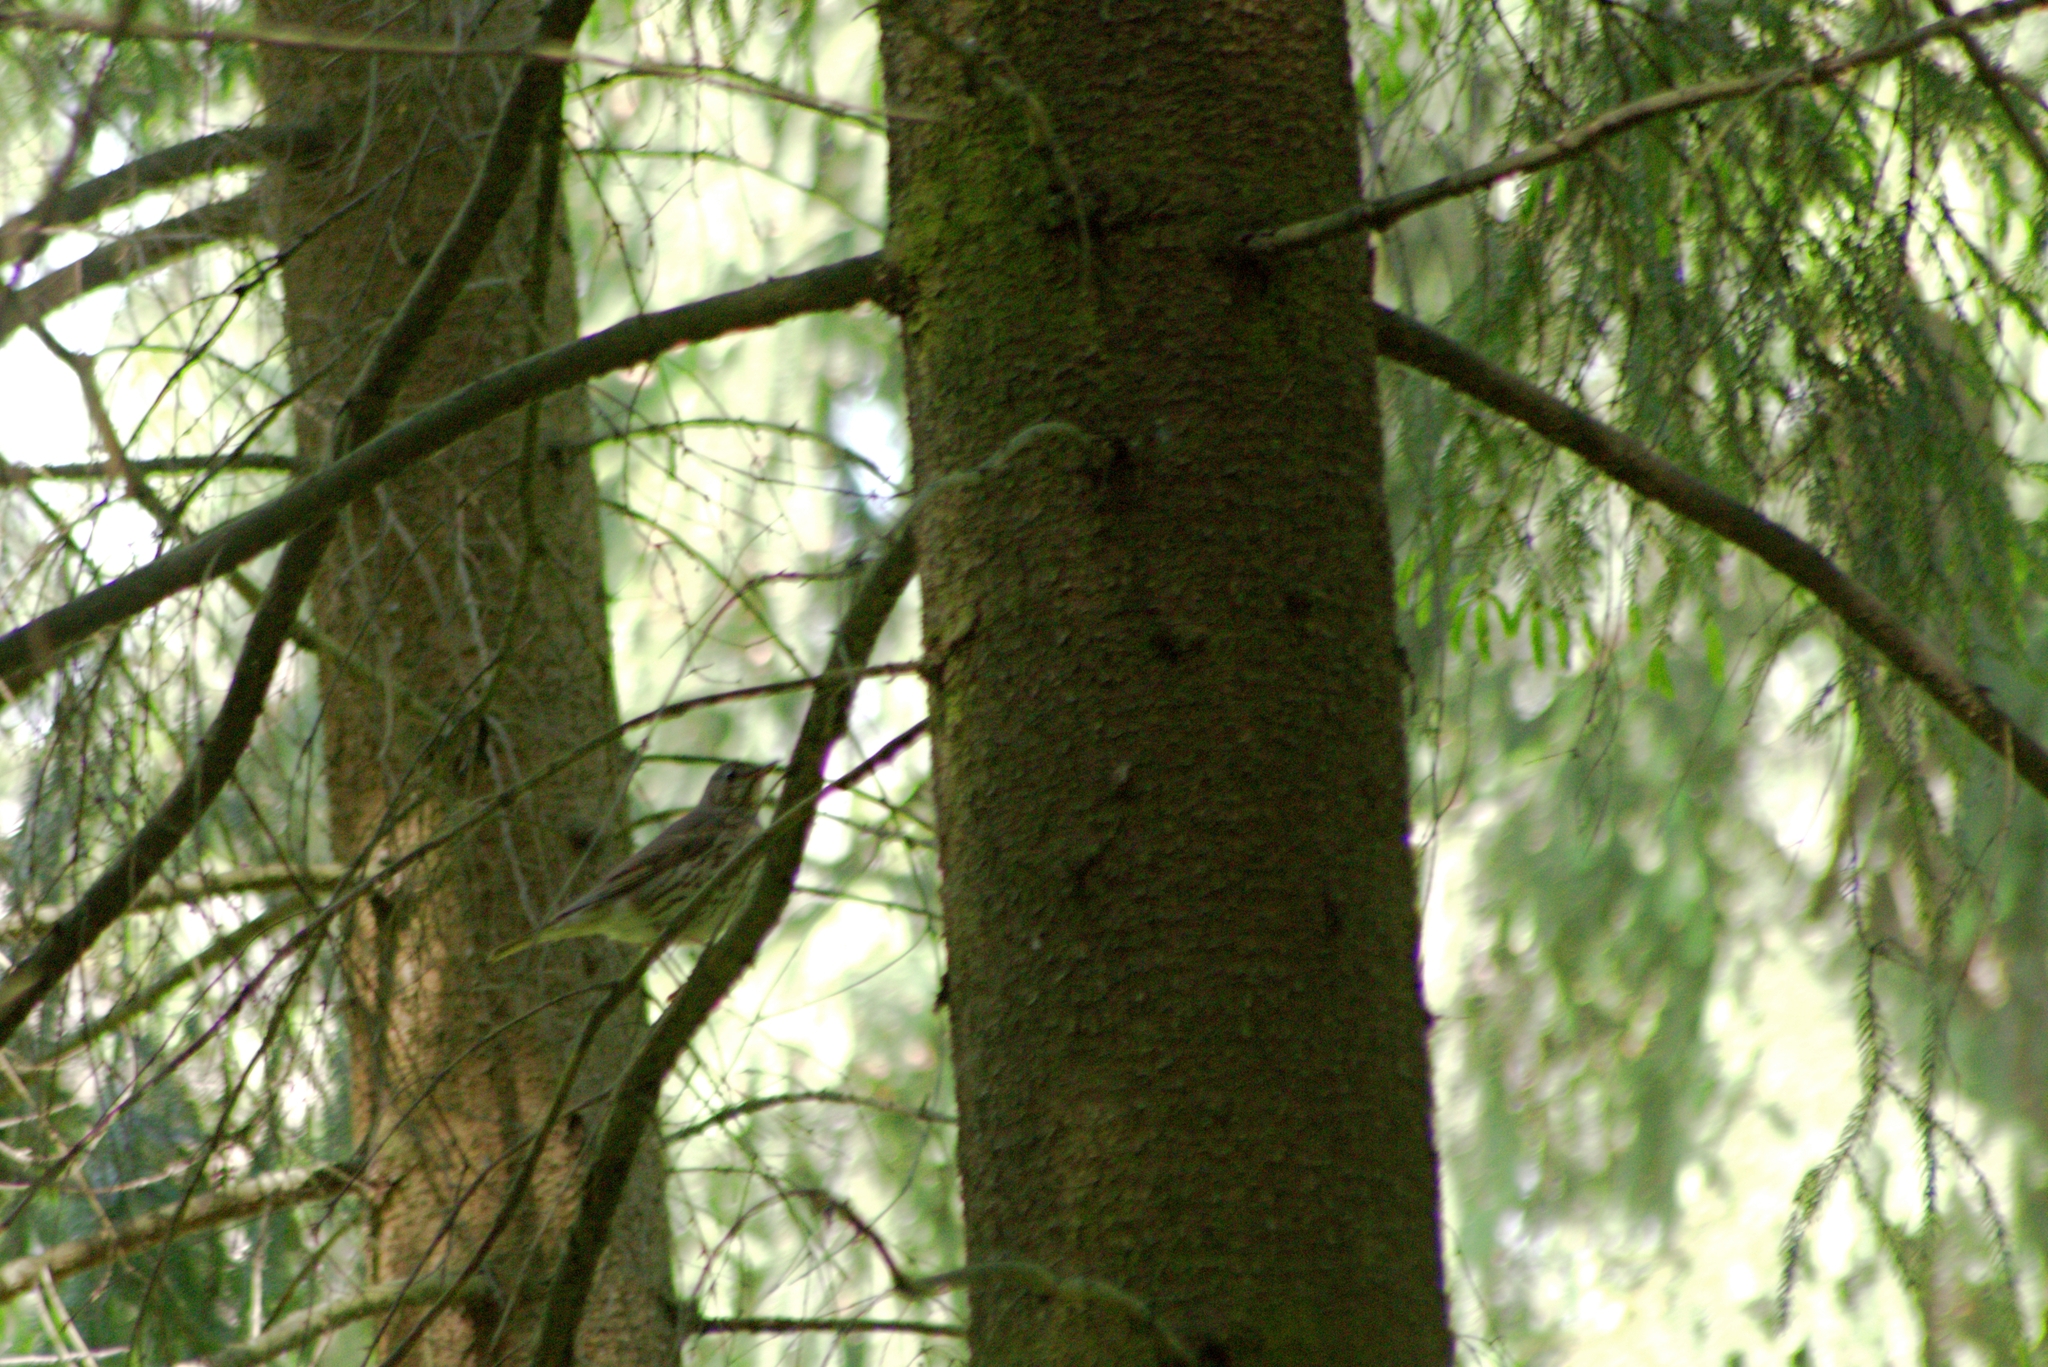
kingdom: Animalia
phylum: Chordata
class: Aves
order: Passeriformes
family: Turdidae
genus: Turdus
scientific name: Turdus philomelos
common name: Song thrush
